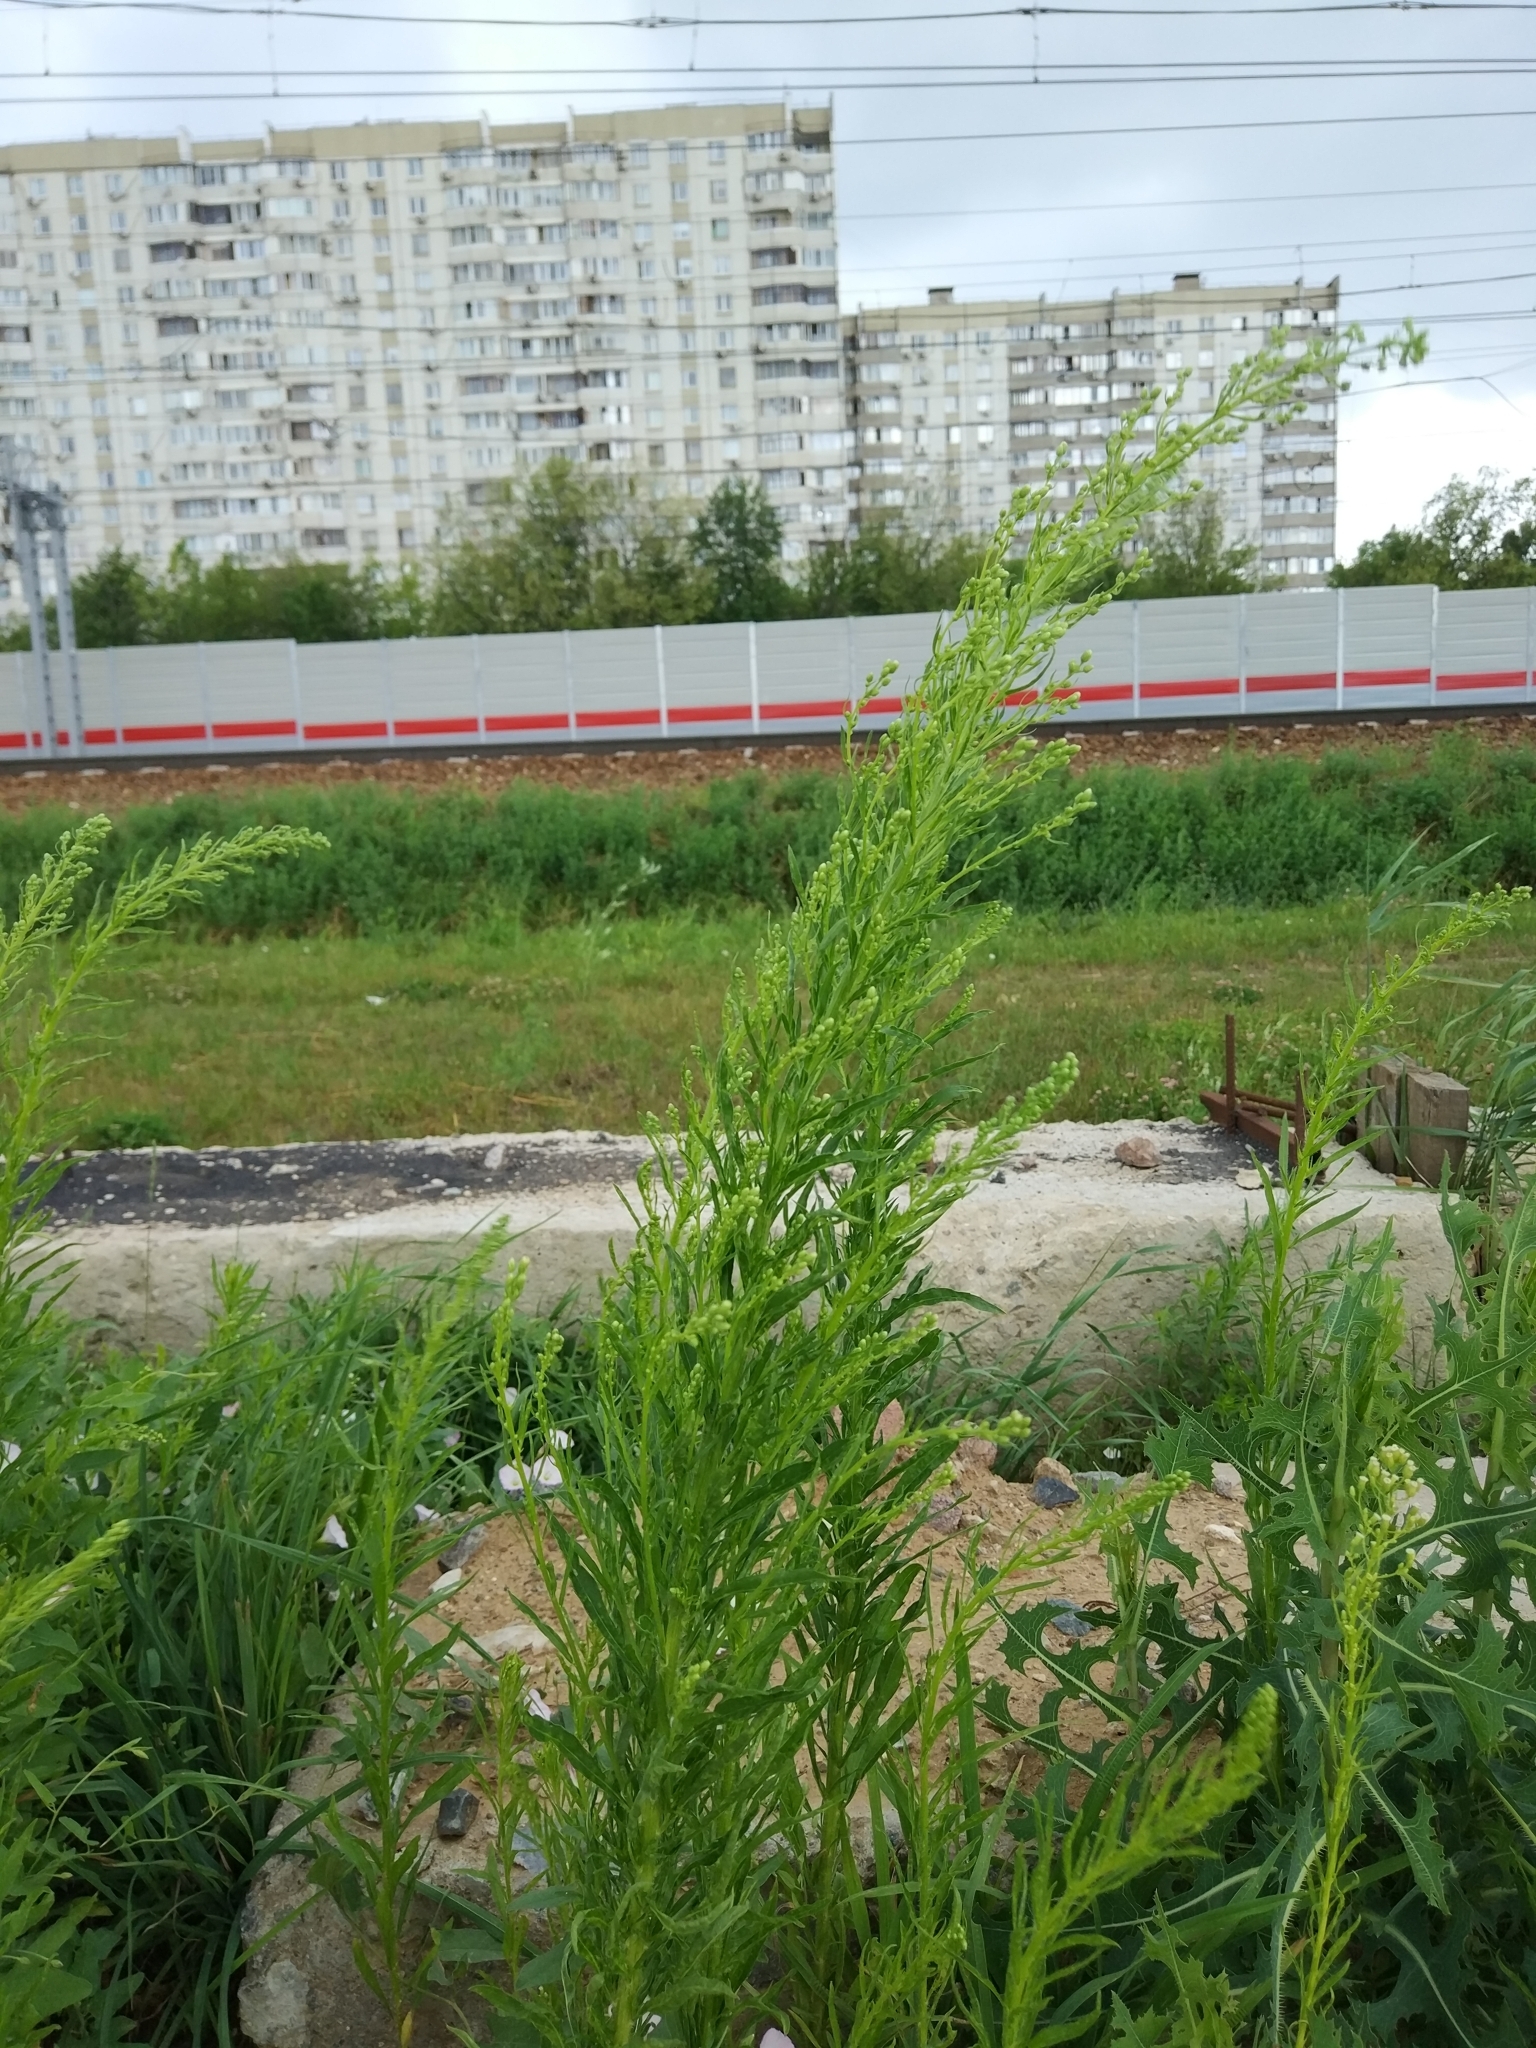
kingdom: Plantae
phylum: Tracheophyta
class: Magnoliopsida
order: Asterales
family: Asteraceae
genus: Erigeron
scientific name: Erigeron canadensis
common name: Canadian fleabane
